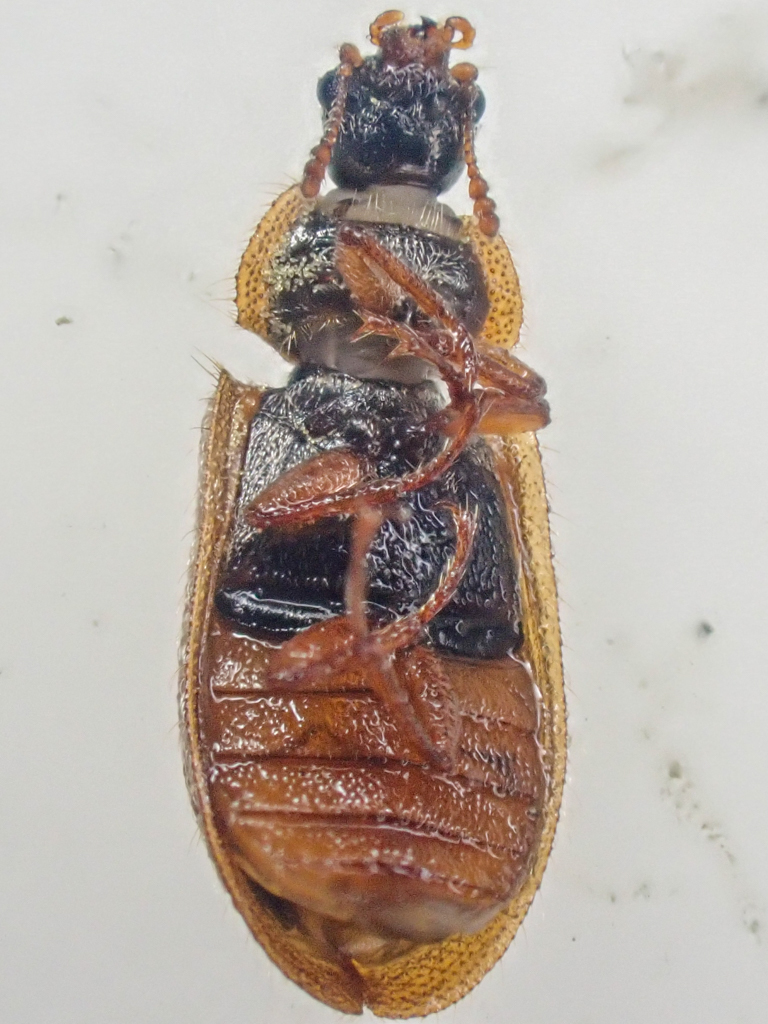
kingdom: Animalia
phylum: Arthropoda
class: Insecta
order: Coleoptera
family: Trogossitidae
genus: Eronyxa
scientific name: Eronyxa pallida
